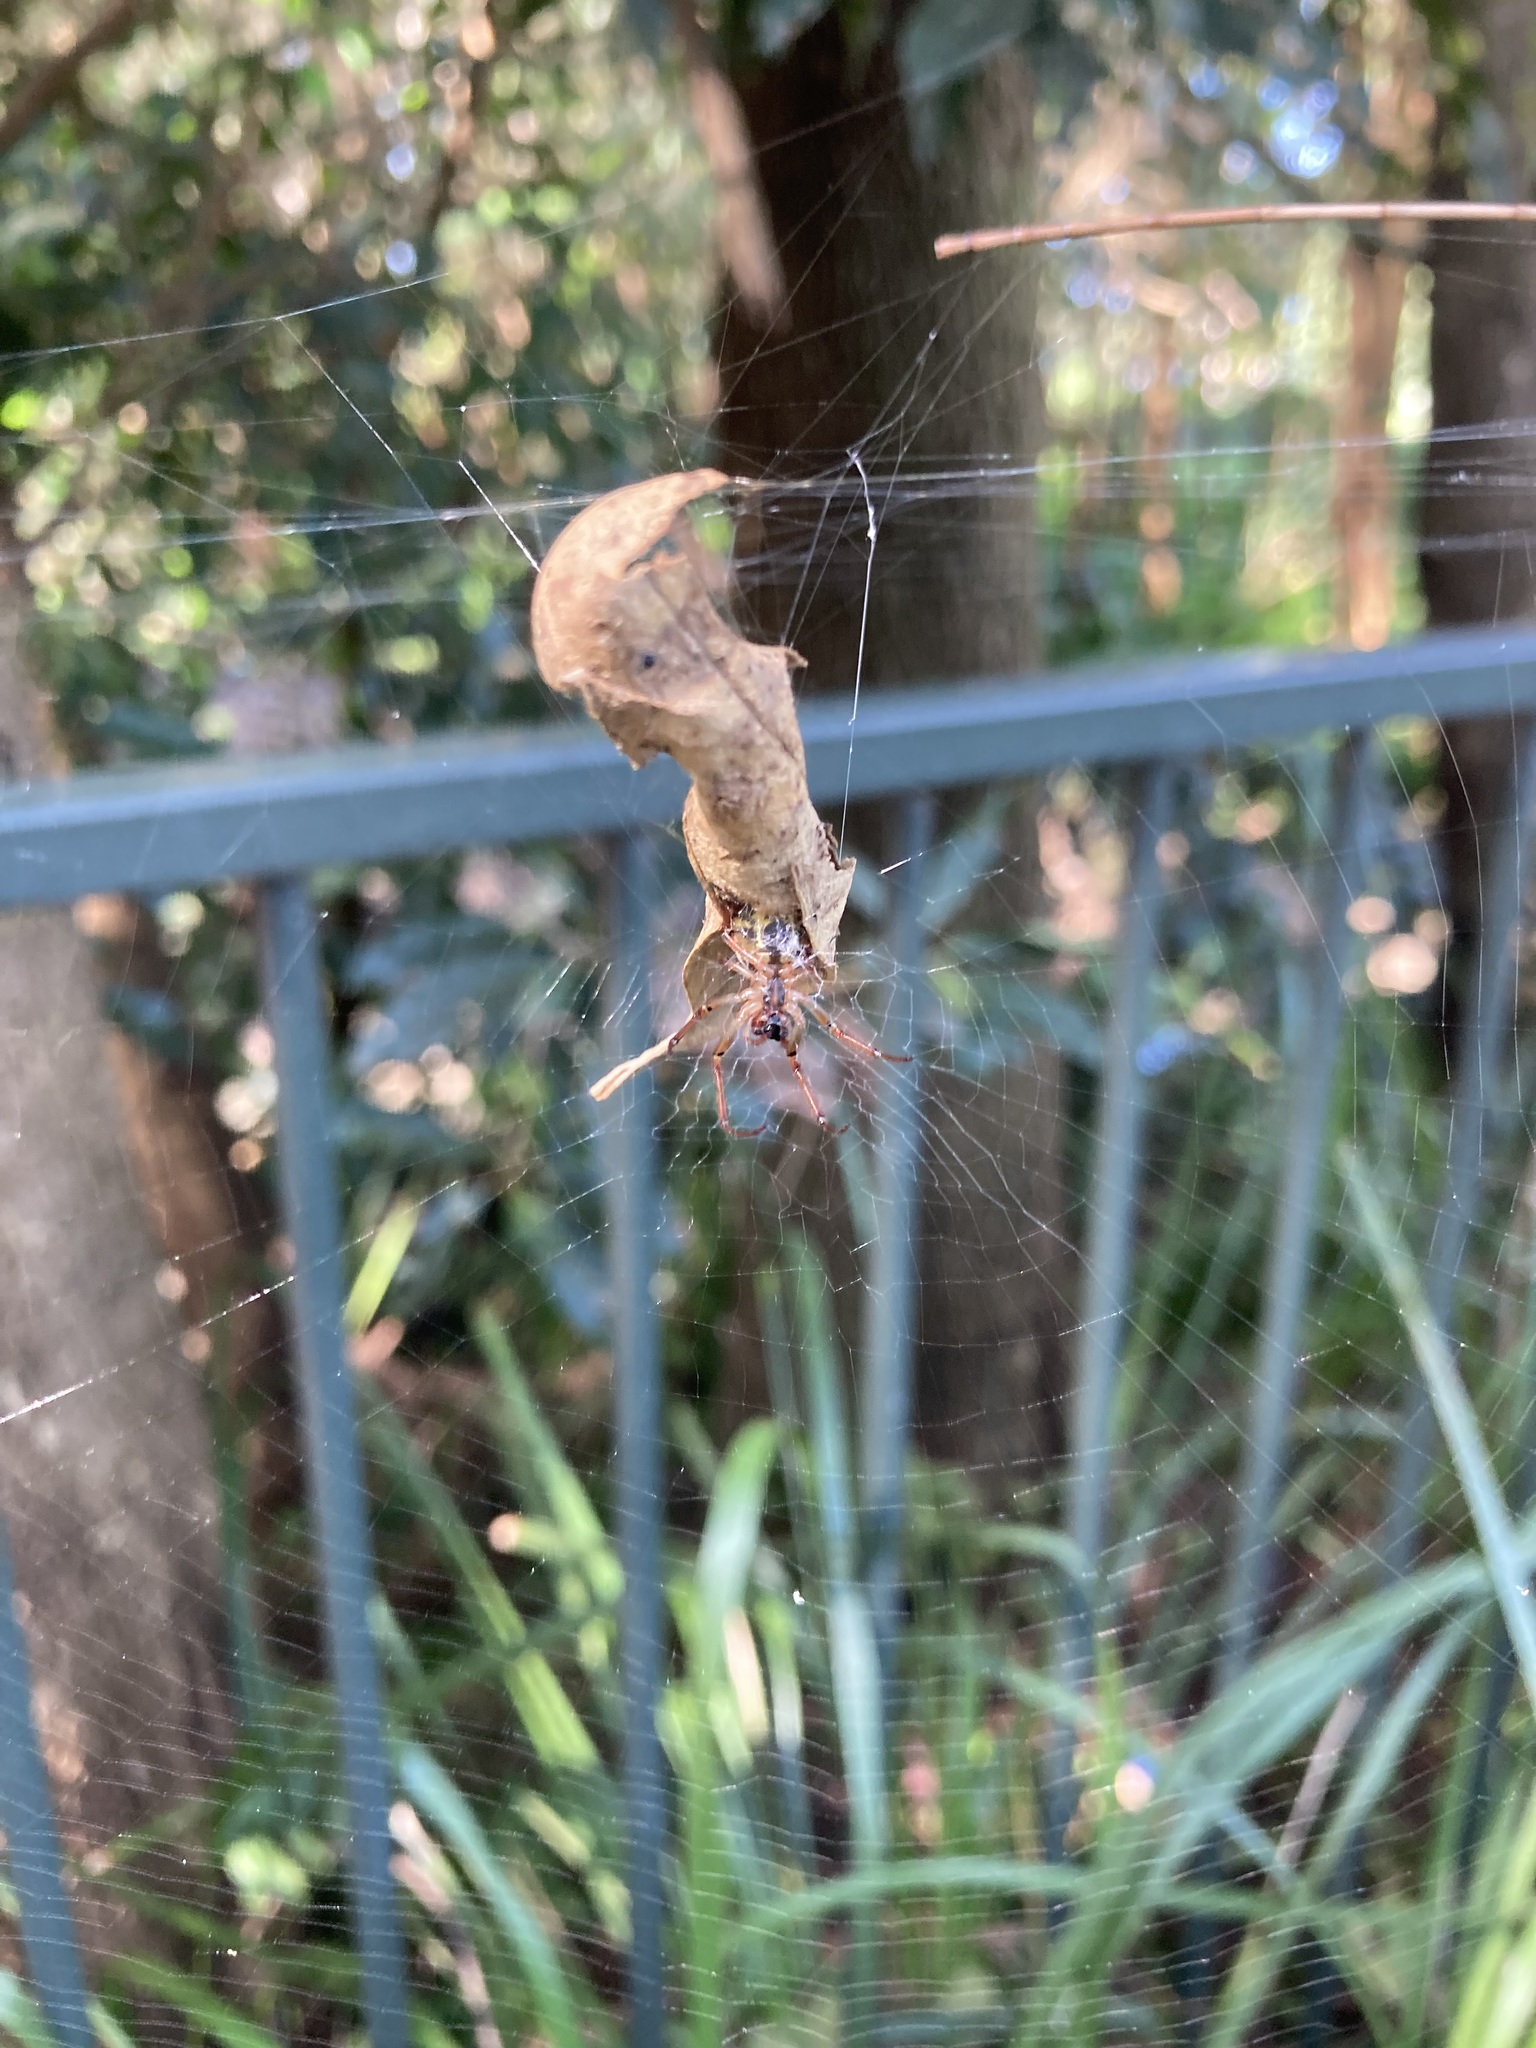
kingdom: Animalia
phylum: Arthropoda
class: Arachnida
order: Araneae
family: Araneidae
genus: Phonognatha
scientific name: Phonognatha graeffei
